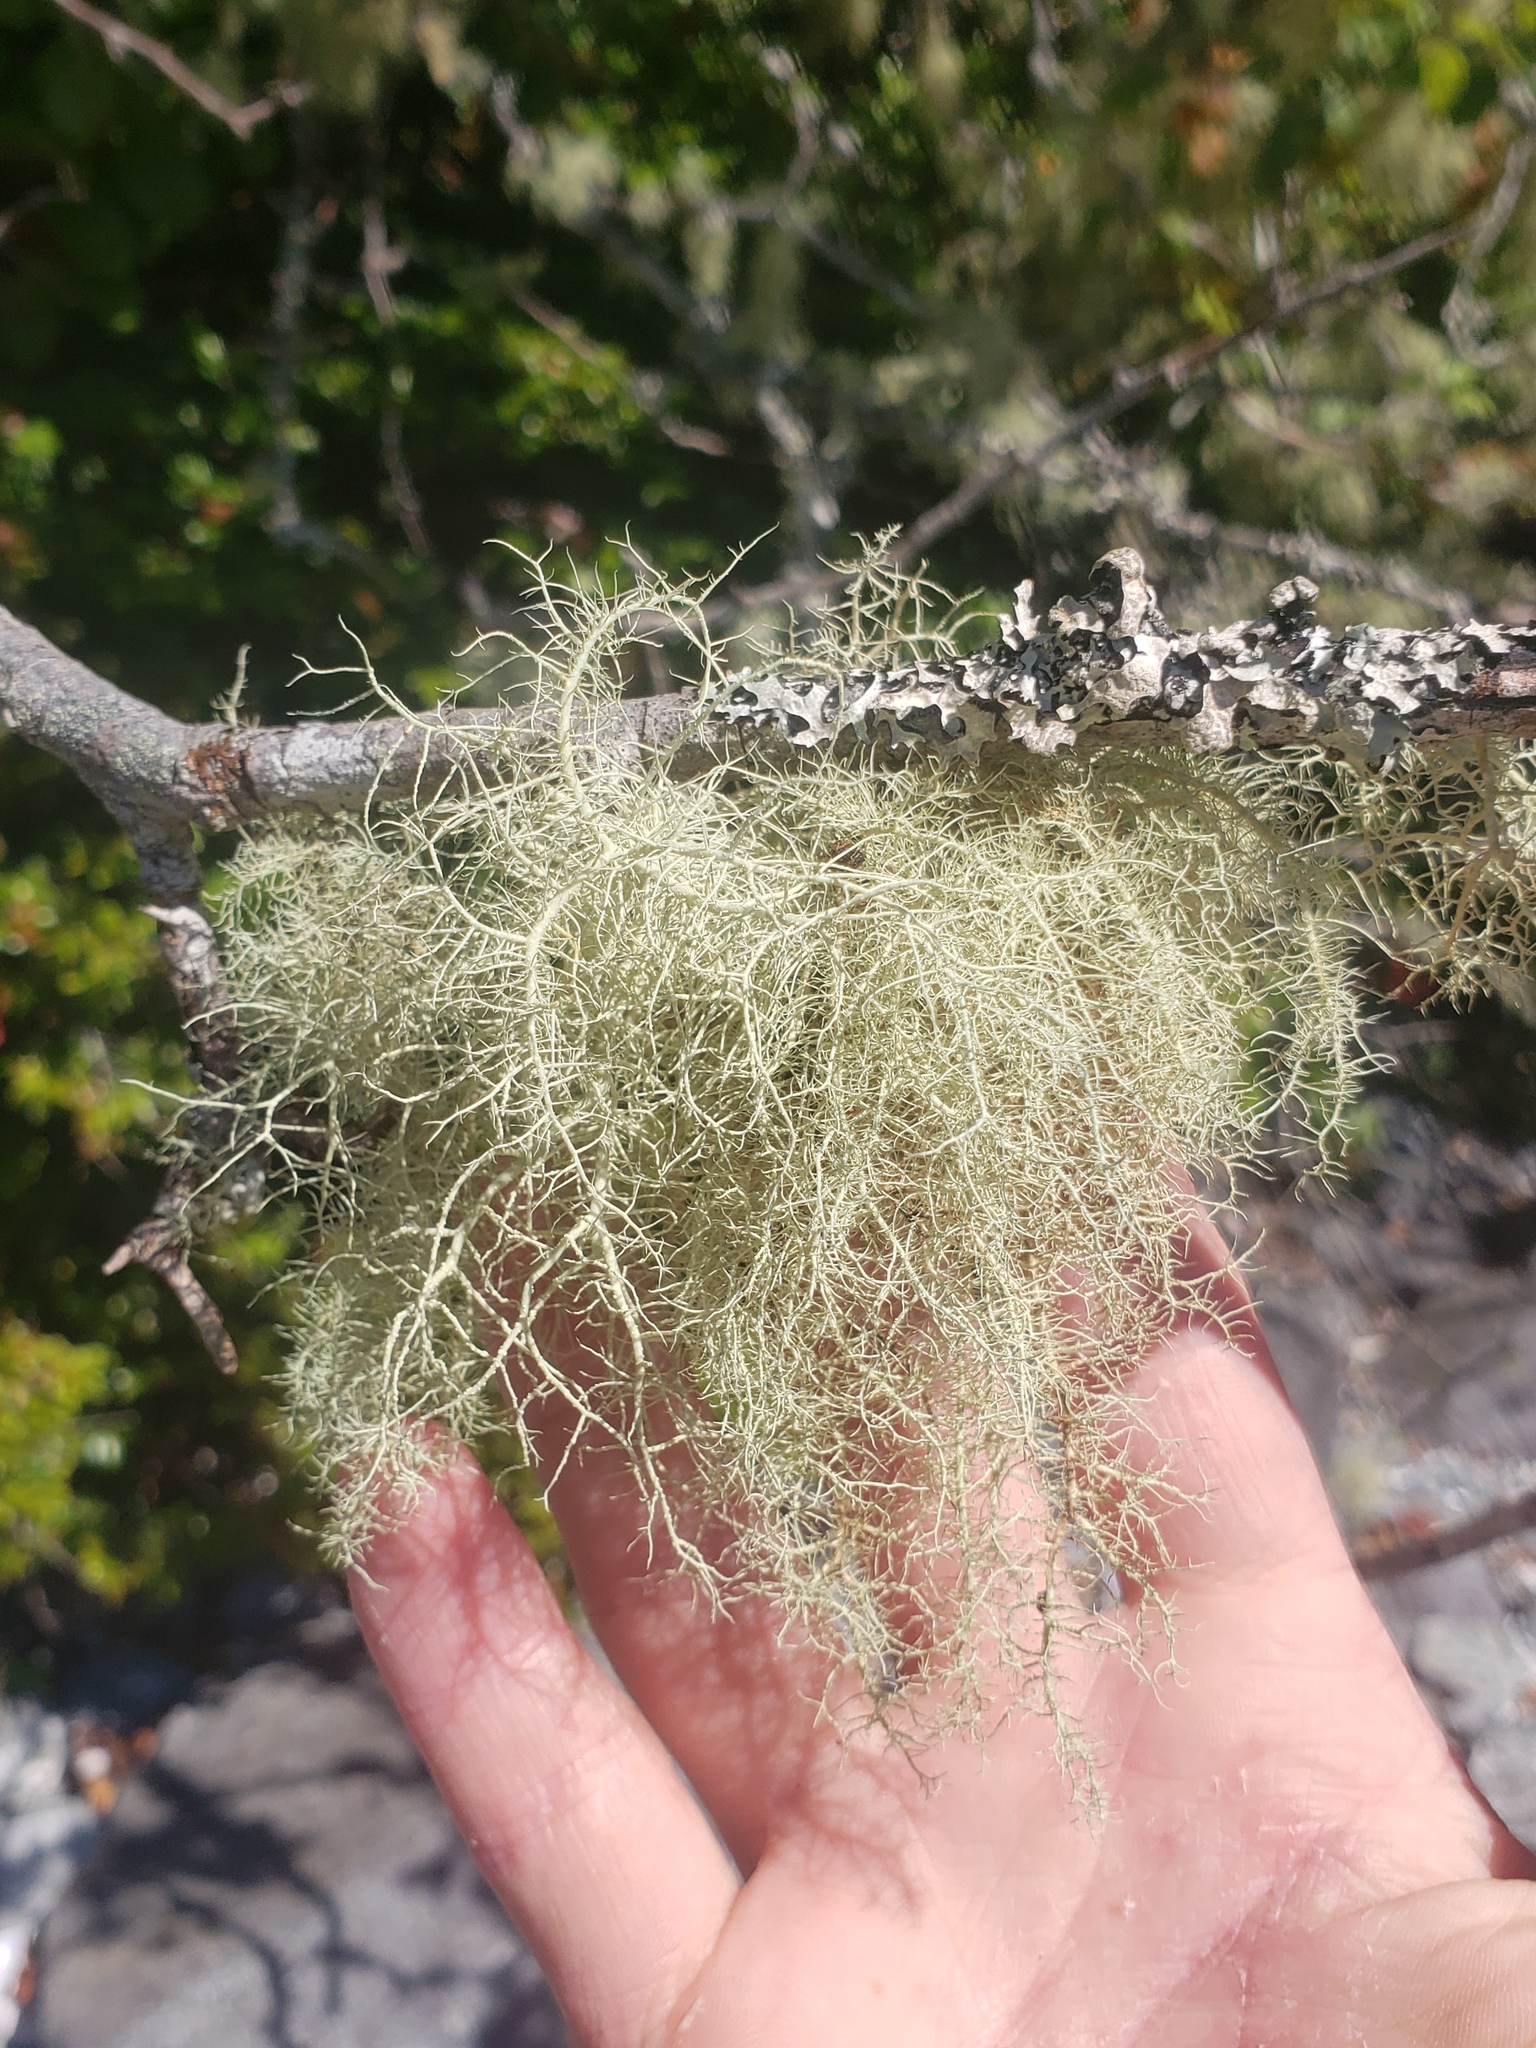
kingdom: Fungi
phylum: Ascomycota
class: Lecanoromycetes
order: Lecanorales
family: Parmeliaceae
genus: Usnea
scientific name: Usnea hirta
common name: Bristly beard lichen
